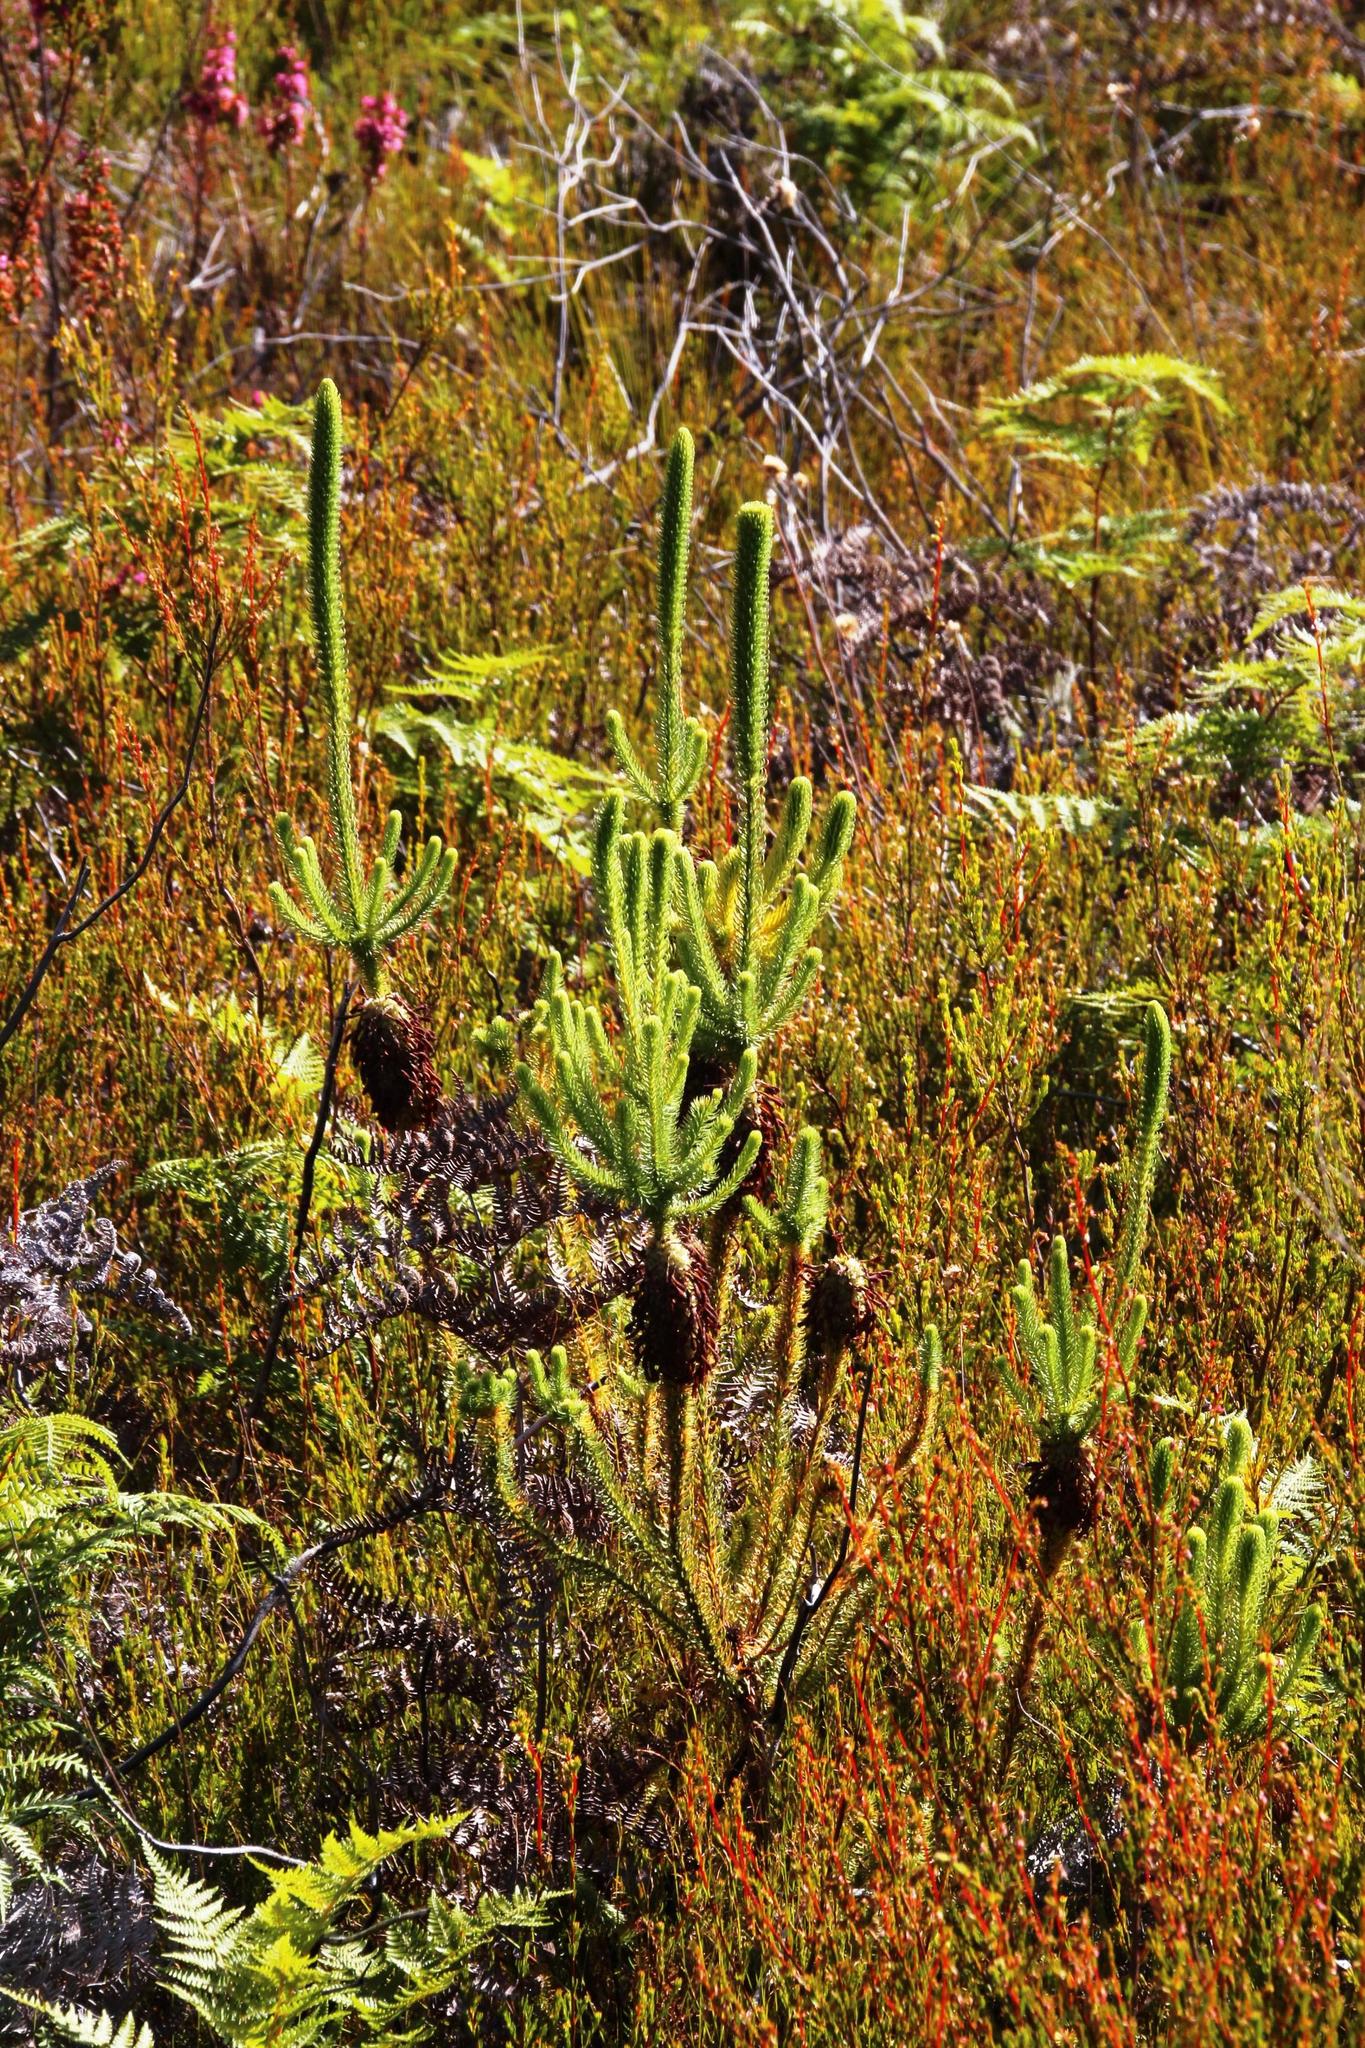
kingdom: Plantae
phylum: Tracheophyta
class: Magnoliopsida
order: Ericales
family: Ericaceae
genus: Erica
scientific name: Erica sessiliflora
